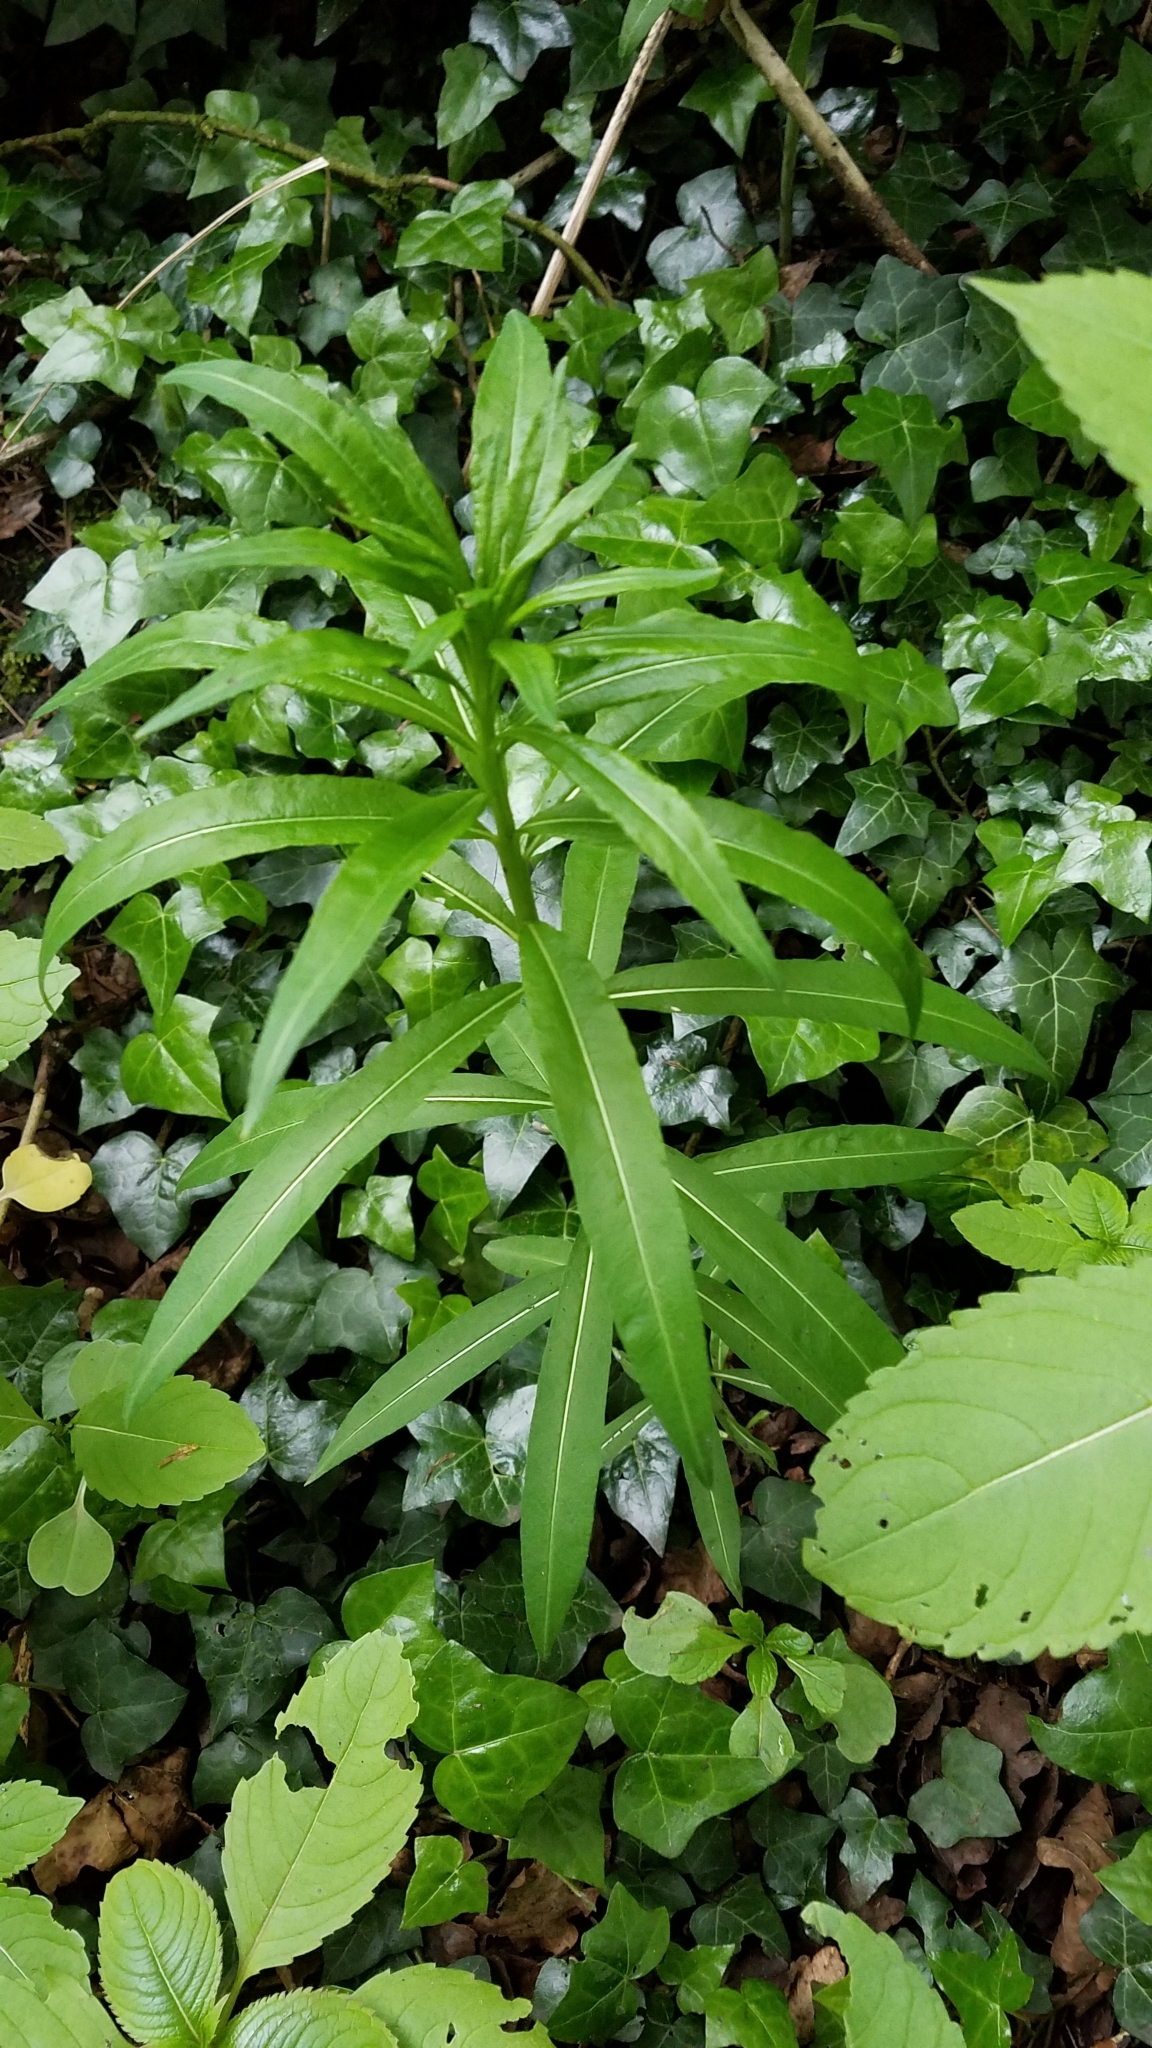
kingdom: Plantae
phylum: Tracheophyta
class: Magnoliopsida
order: Myrtales
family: Onagraceae
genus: Chamaenerion
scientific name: Chamaenerion angustifolium
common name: Fireweed
